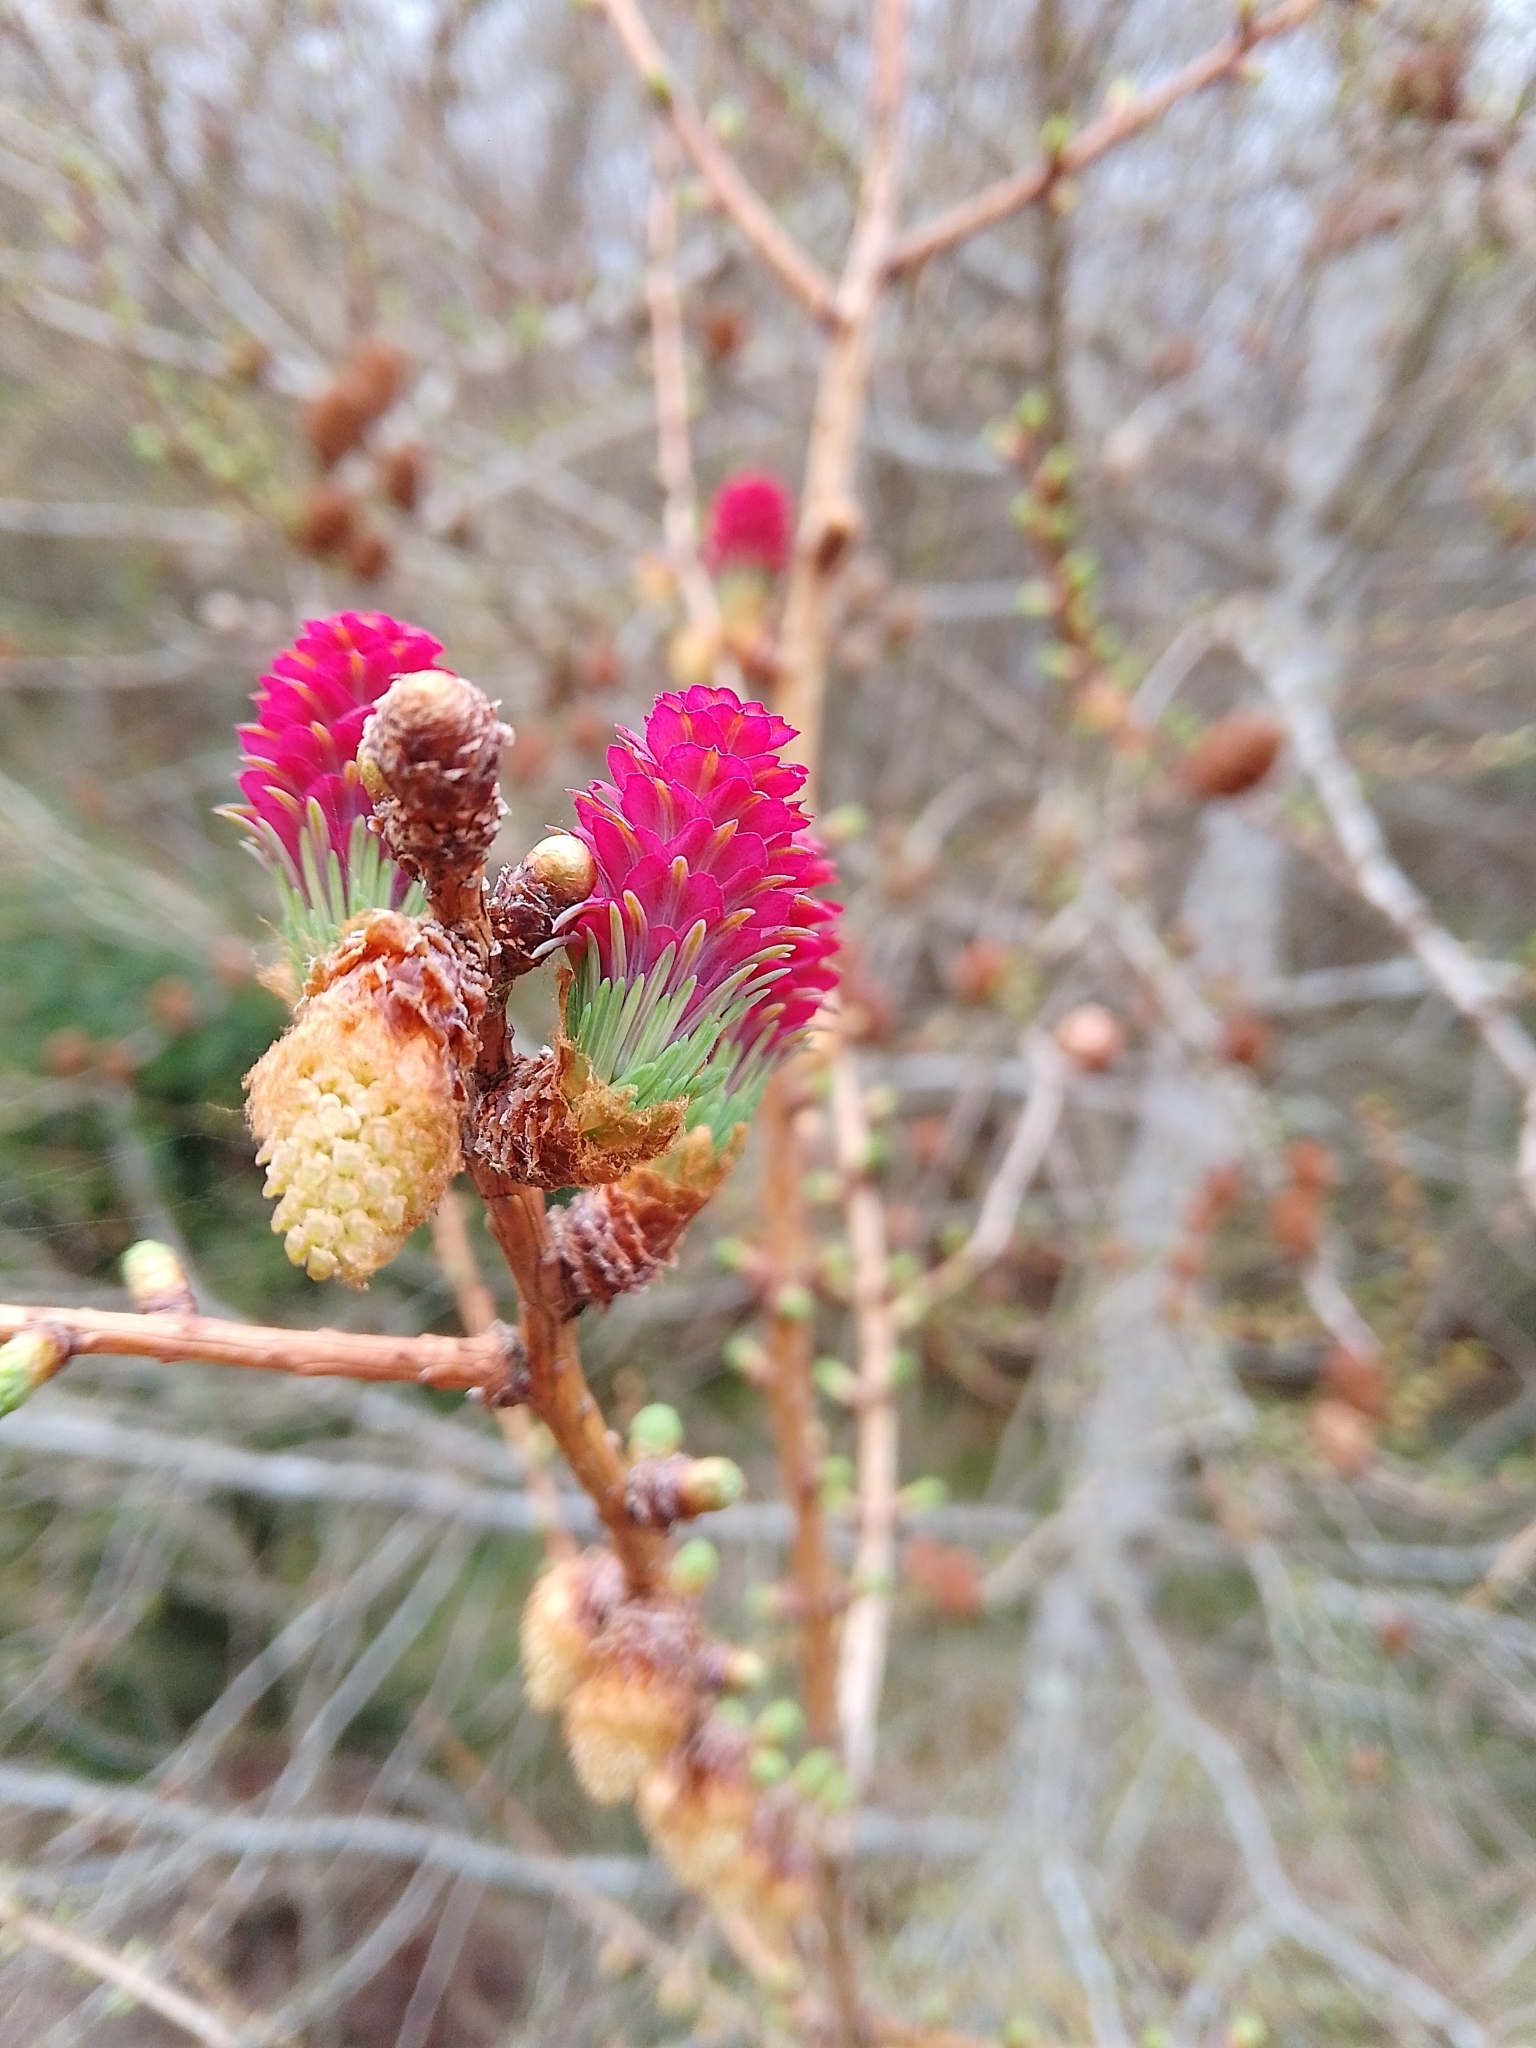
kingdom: Plantae
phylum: Tracheophyta
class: Pinopsida
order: Pinales
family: Pinaceae
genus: Larix
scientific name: Larix decidua
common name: European larch
